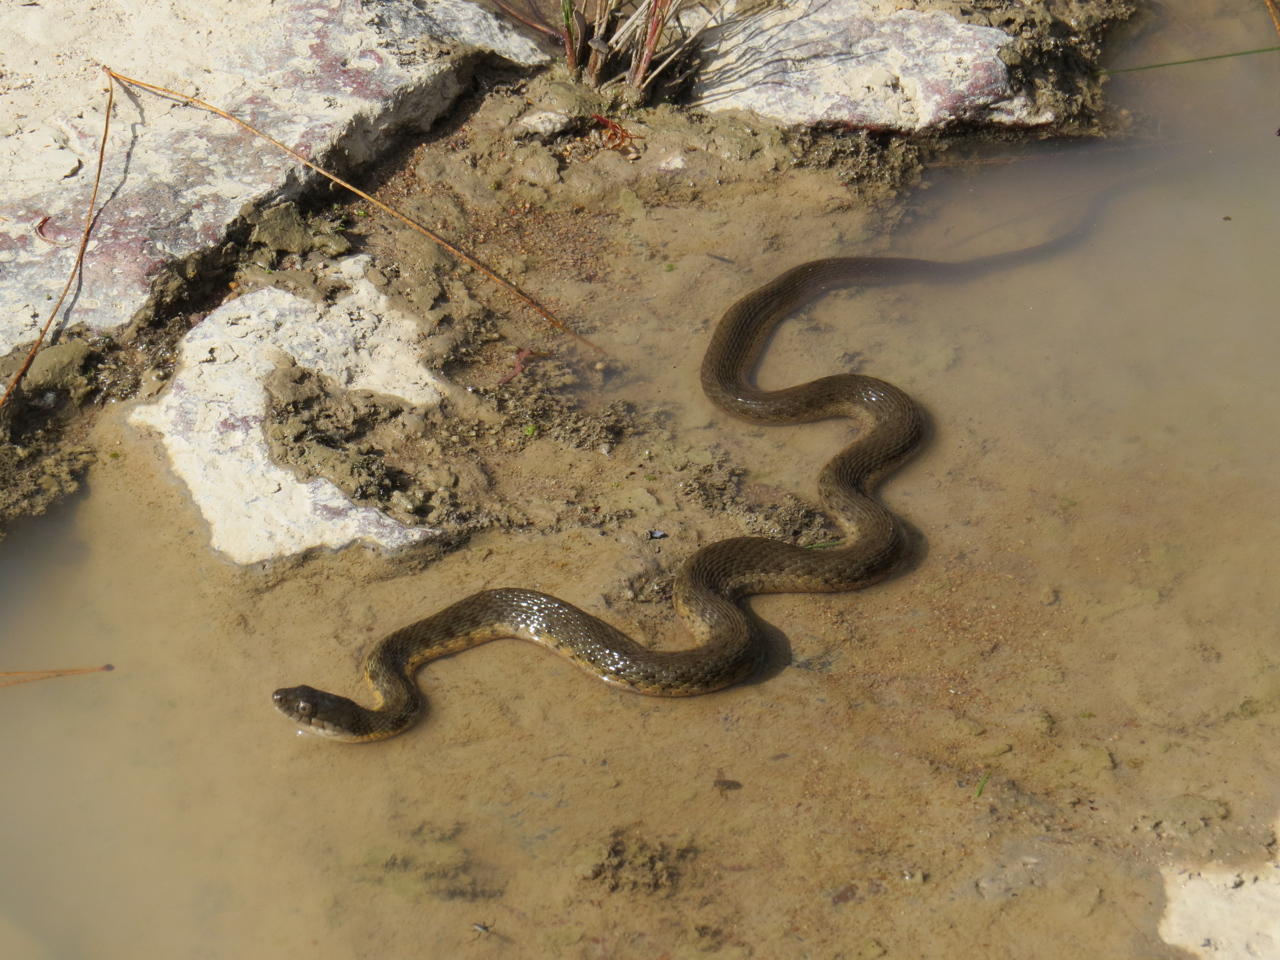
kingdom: Animalia
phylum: Chordata
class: Squamata
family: Colubridae
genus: Thamnophis
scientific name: Thamnophis melanogaster
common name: Blackbelly garter snake
